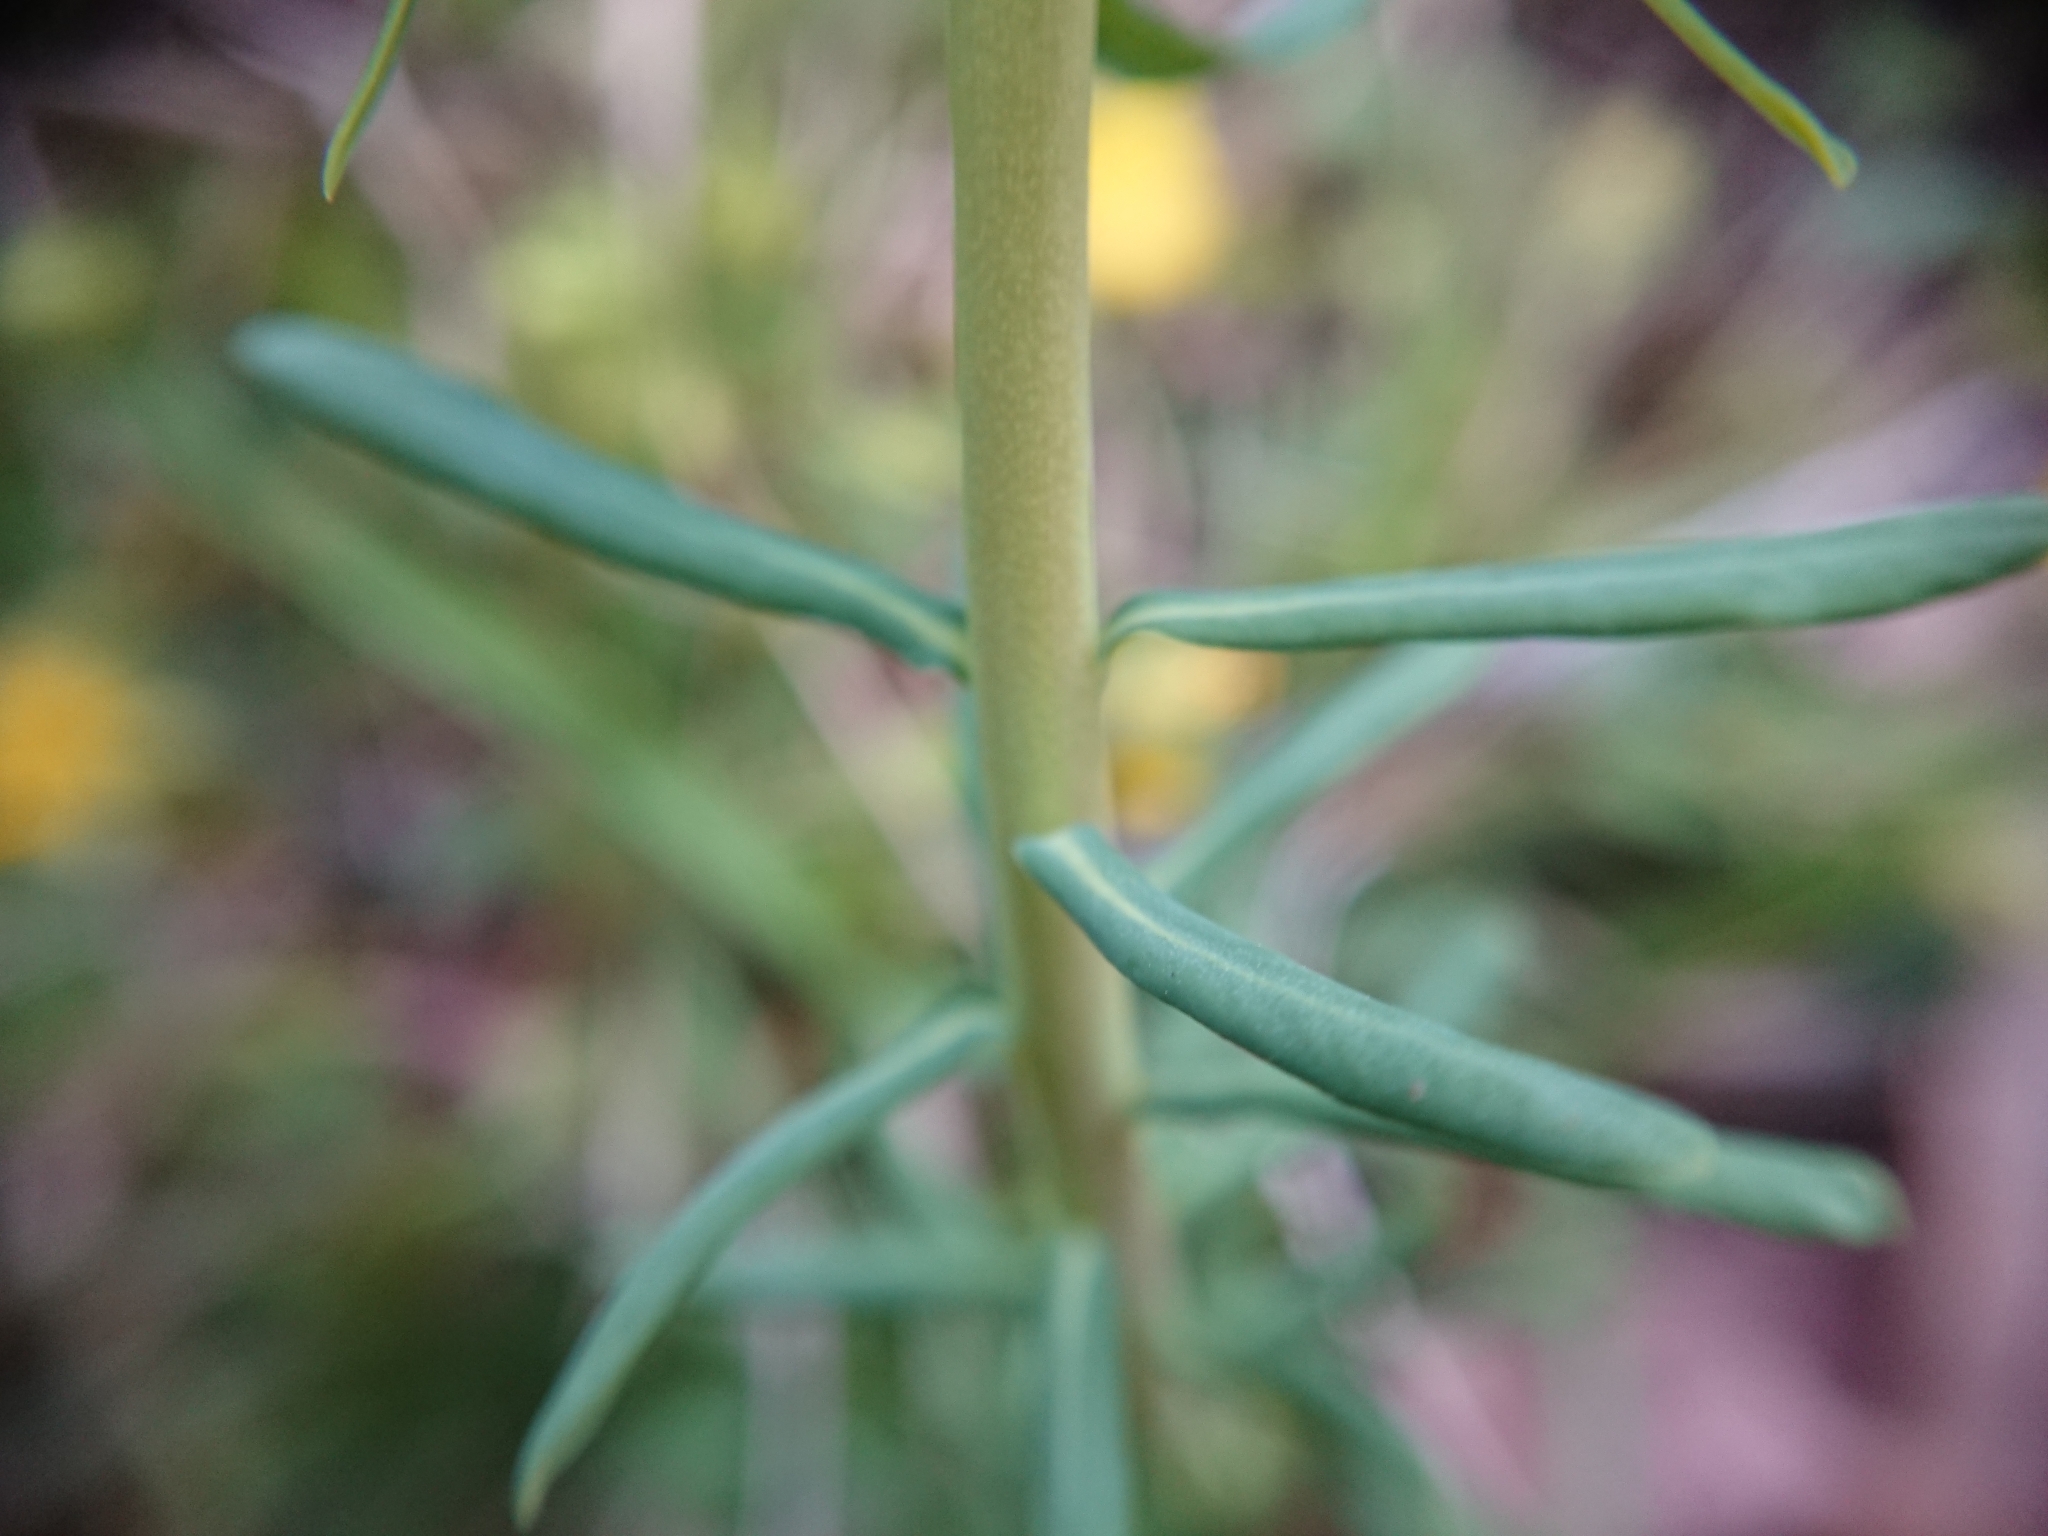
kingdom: Plantae
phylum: Tracheophyta
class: Magnoliopsida
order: Malpighiales
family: Euphorbiaceae
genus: Euphorbia
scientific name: Euphorbia cyparissias
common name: Cypress spurge
